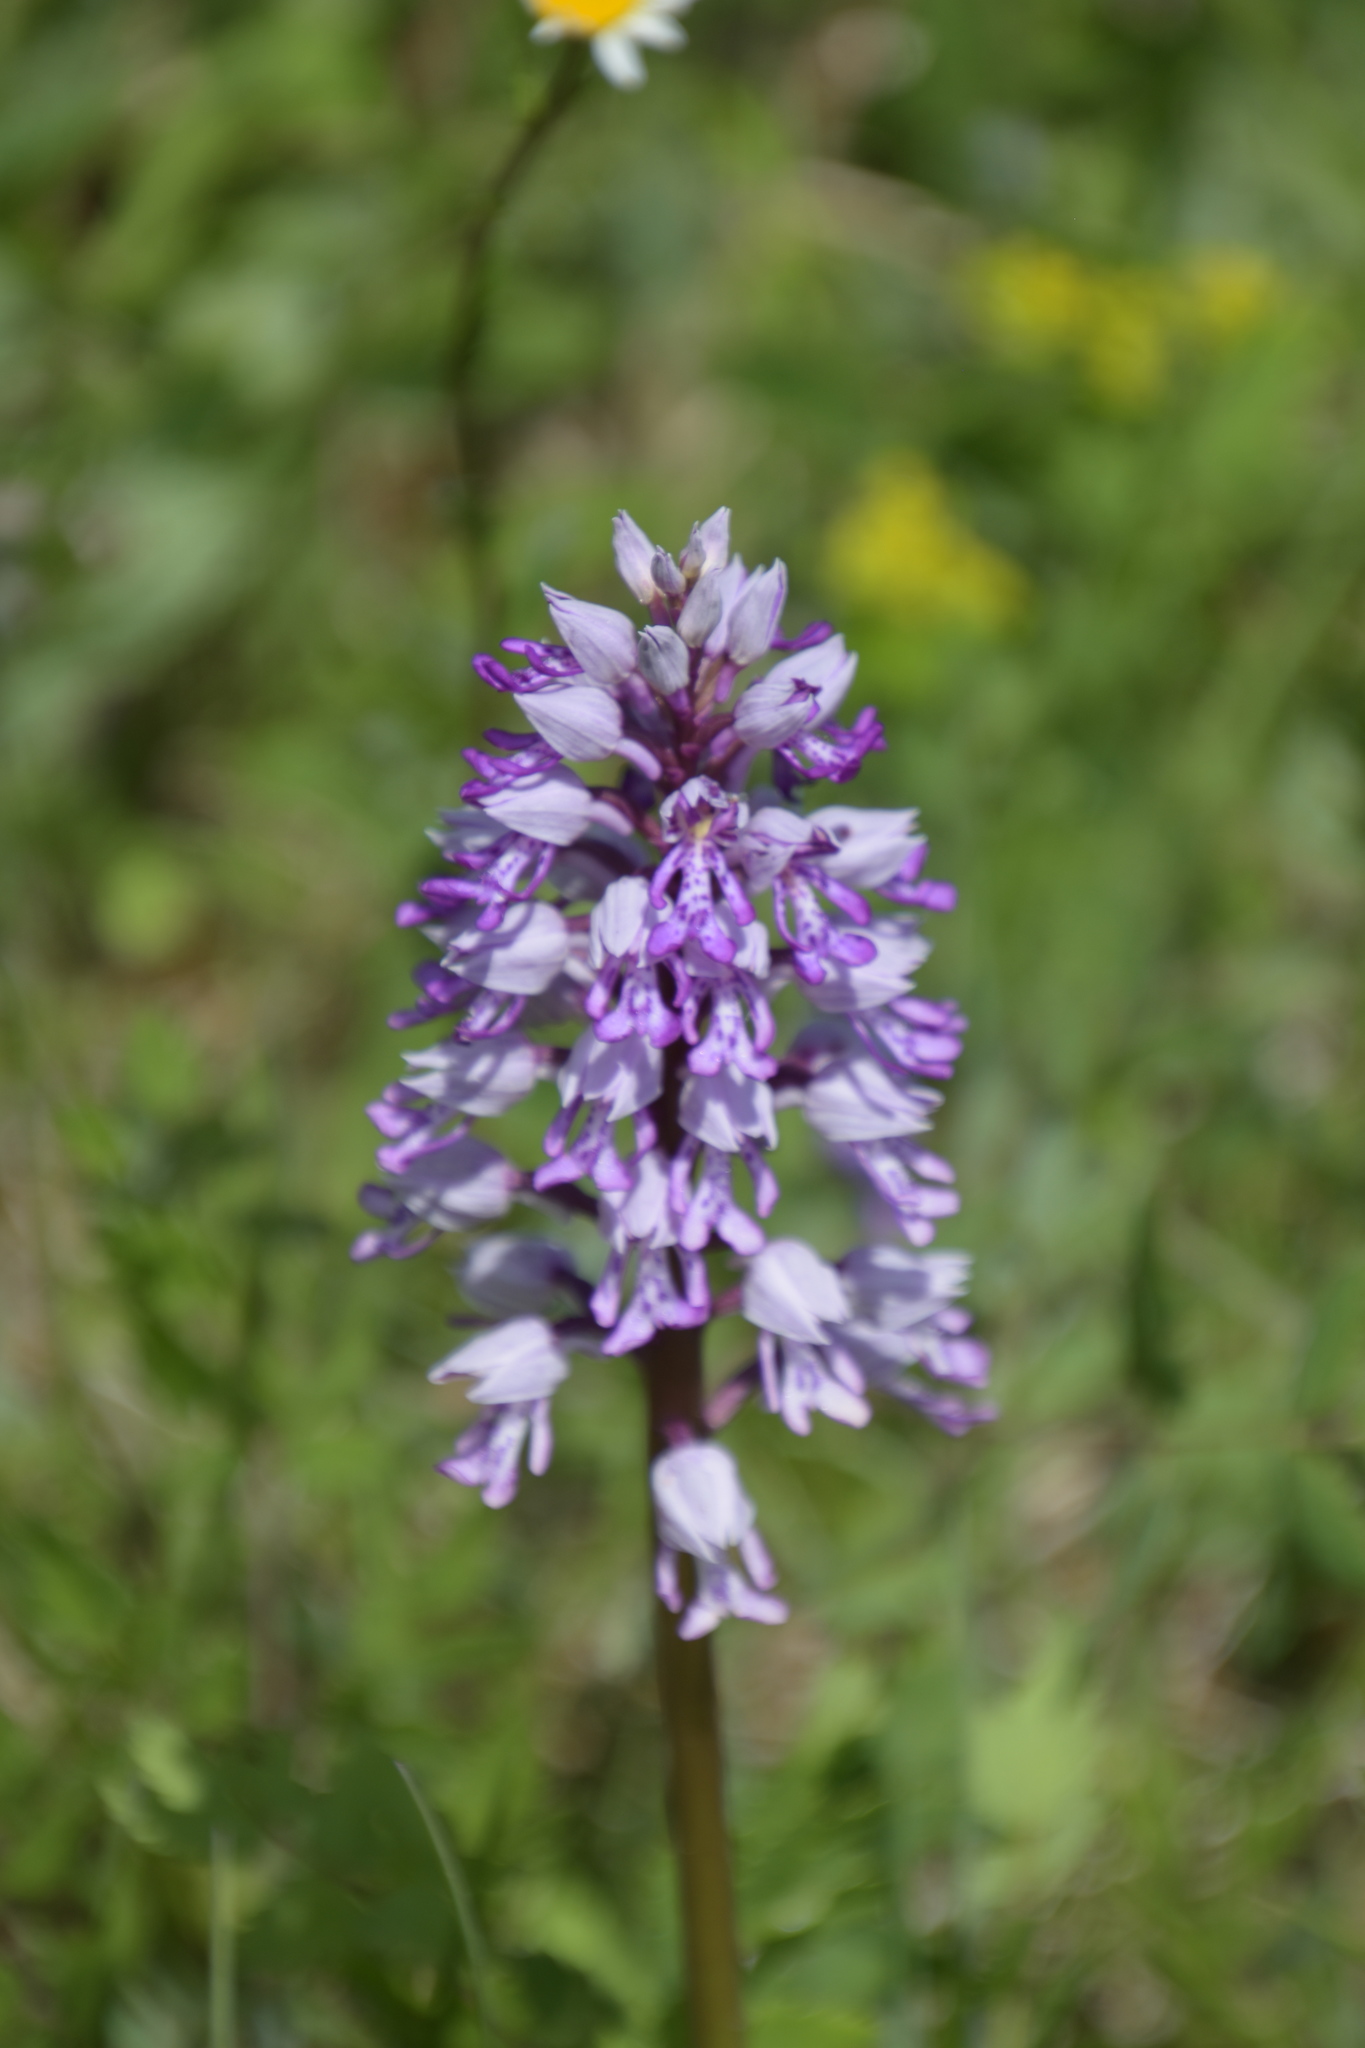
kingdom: Plantae
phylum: Tracheophyta
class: Liliopsida
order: Asparagales
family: Orchidaceae
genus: Orchis
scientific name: Orchis militaris
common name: Military orchid
